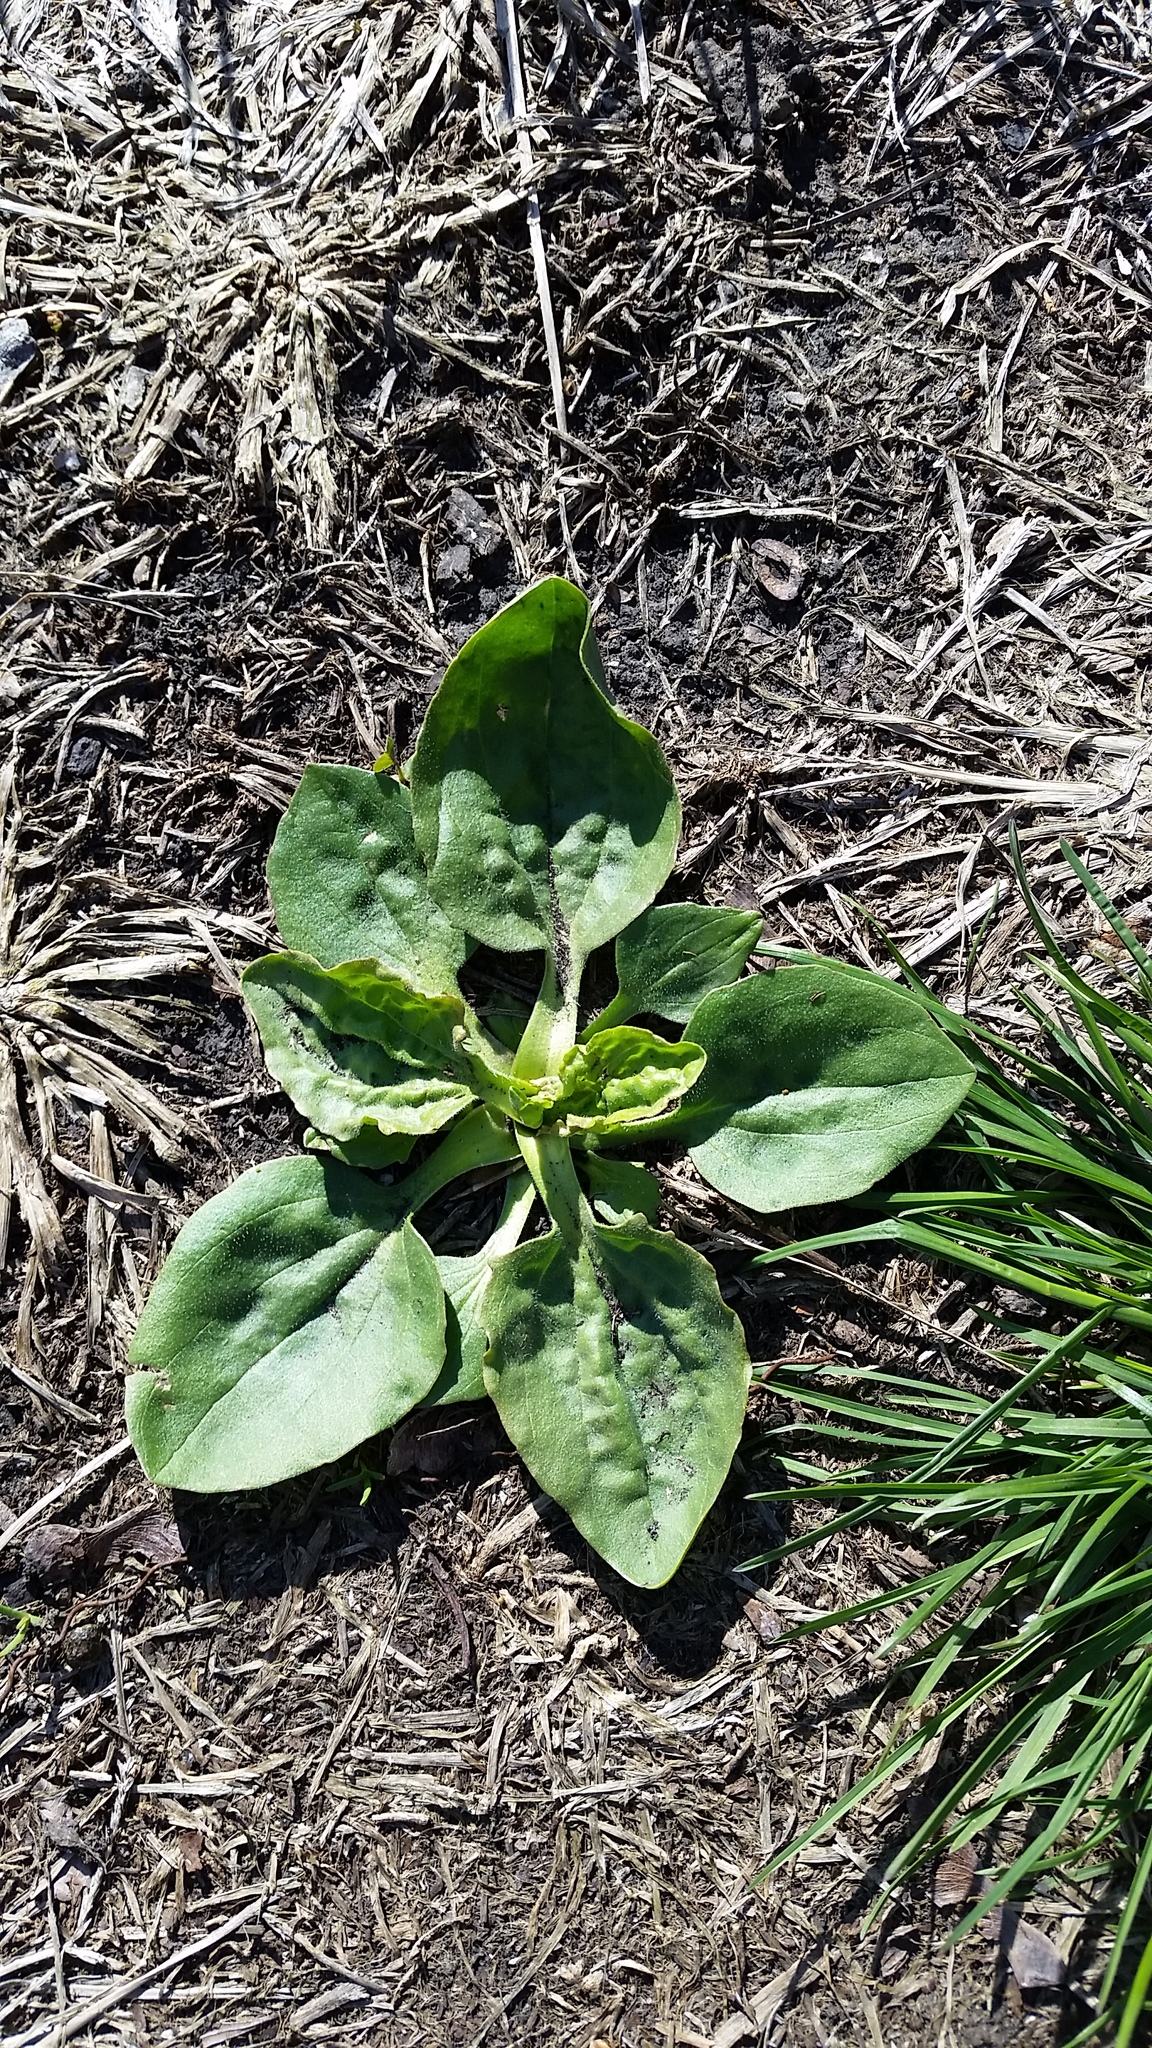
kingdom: Plantae
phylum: Tracheophyta
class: Magnoliopsida
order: Lamiales
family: Plantaginaceae
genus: Plantago
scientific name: Plantago major
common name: Common plantain
